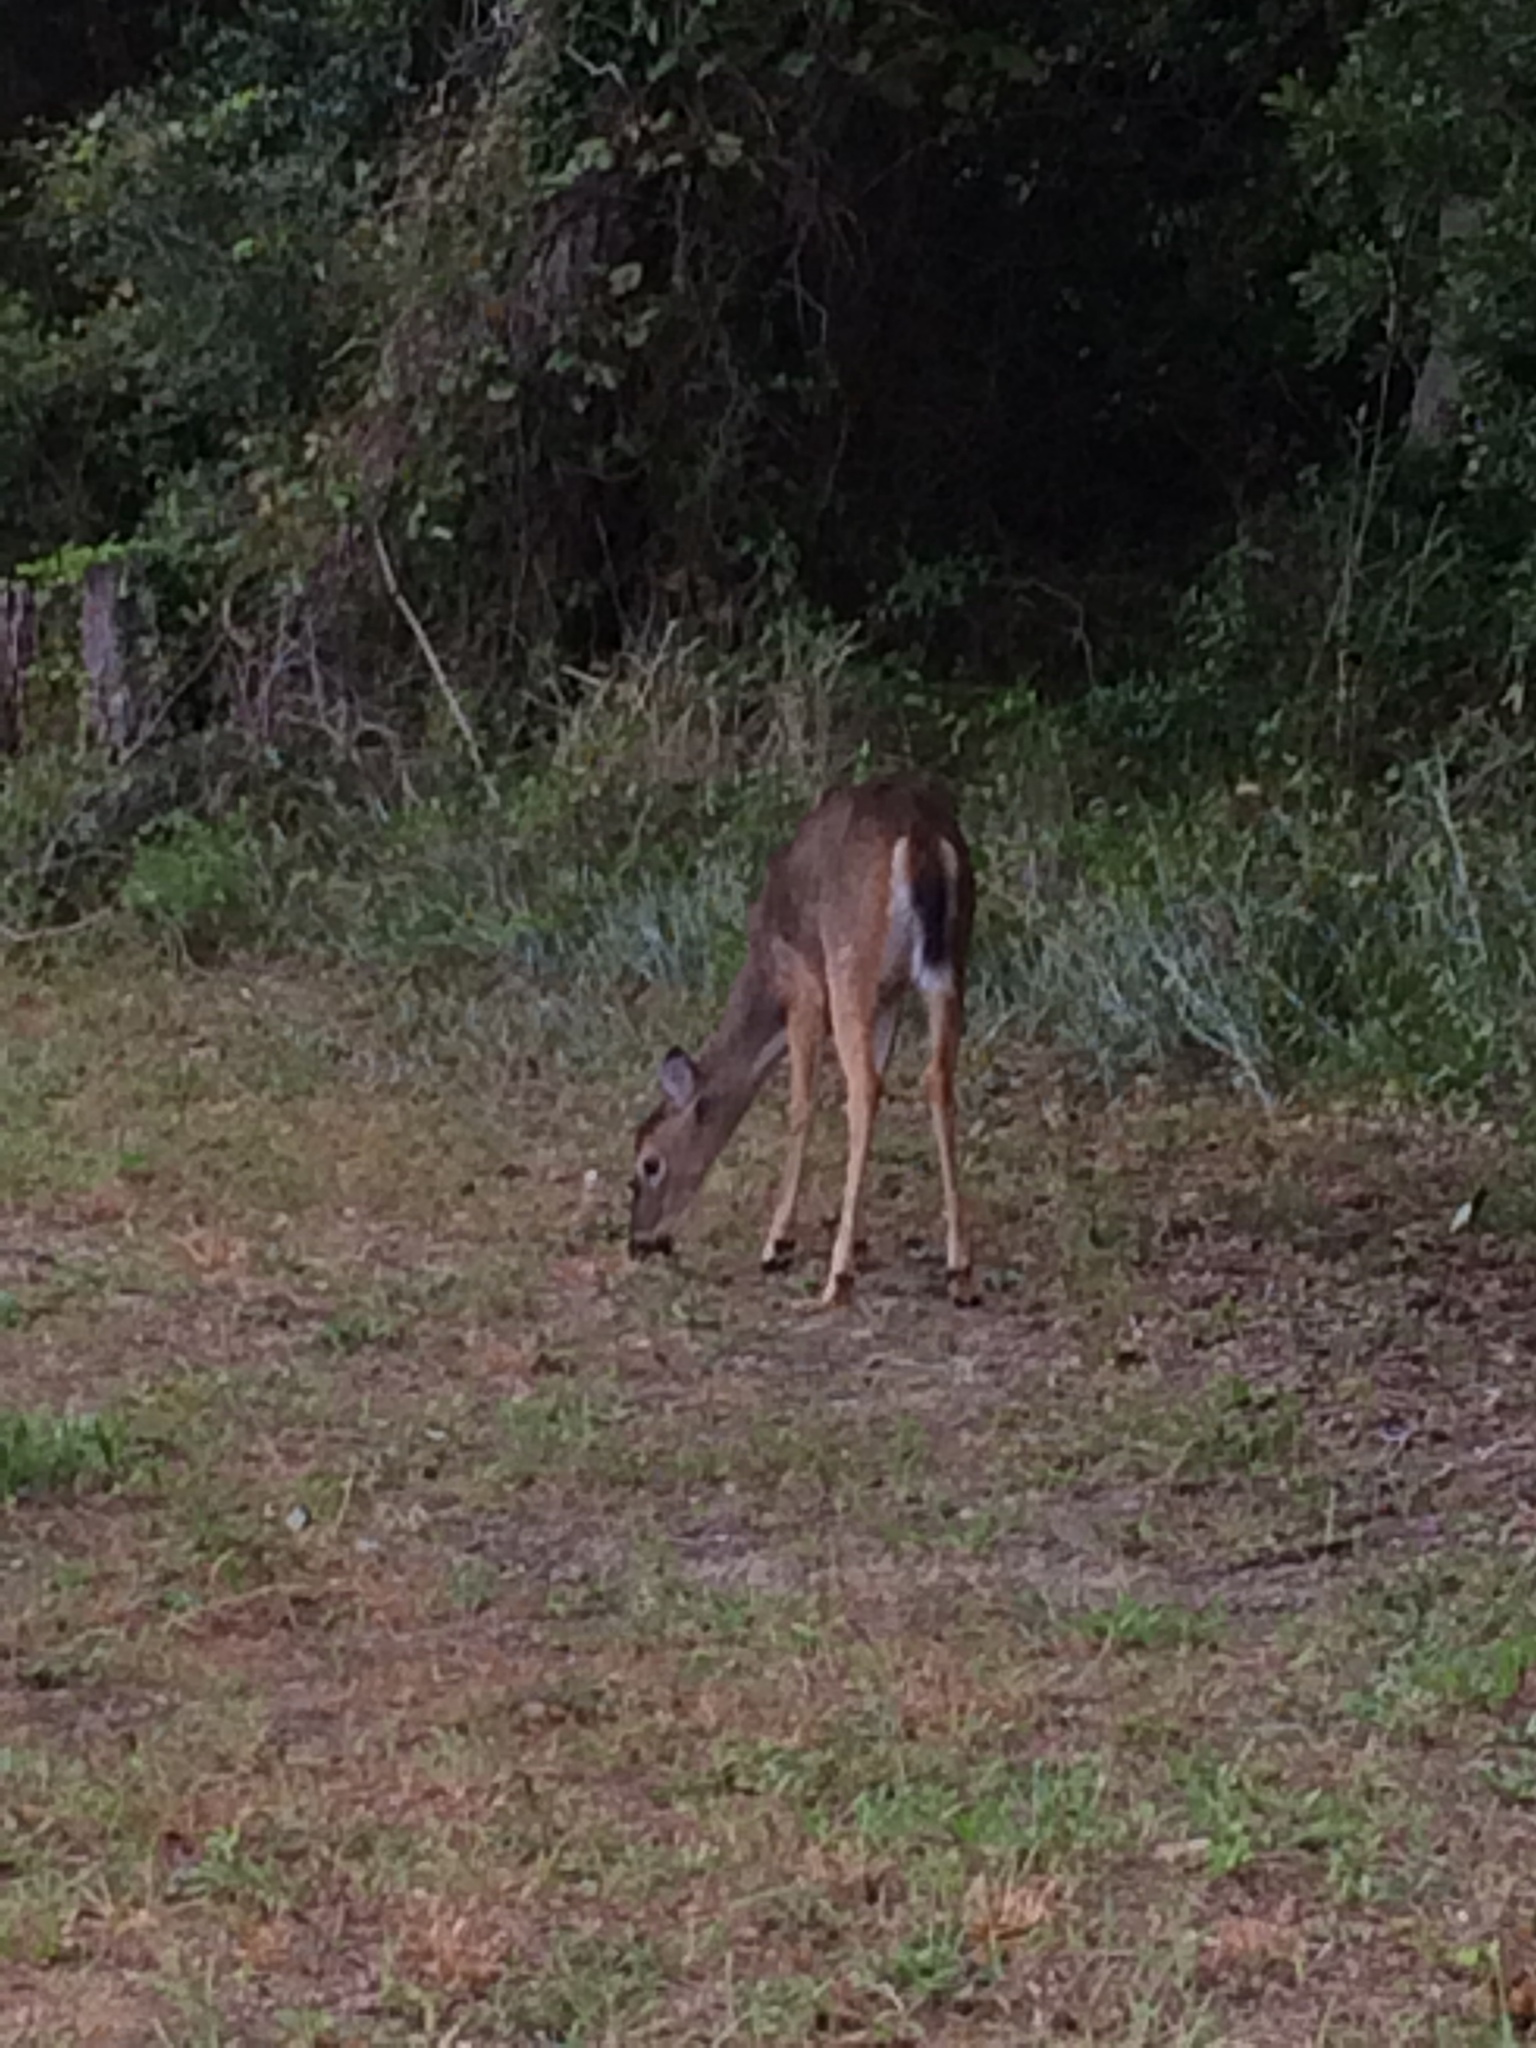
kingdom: Animalia
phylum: Chordata
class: Mammalia
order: Artiodactyla
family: Cervidae
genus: Odocoileus
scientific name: Odocoileus virginianus
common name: White-tailed deer
